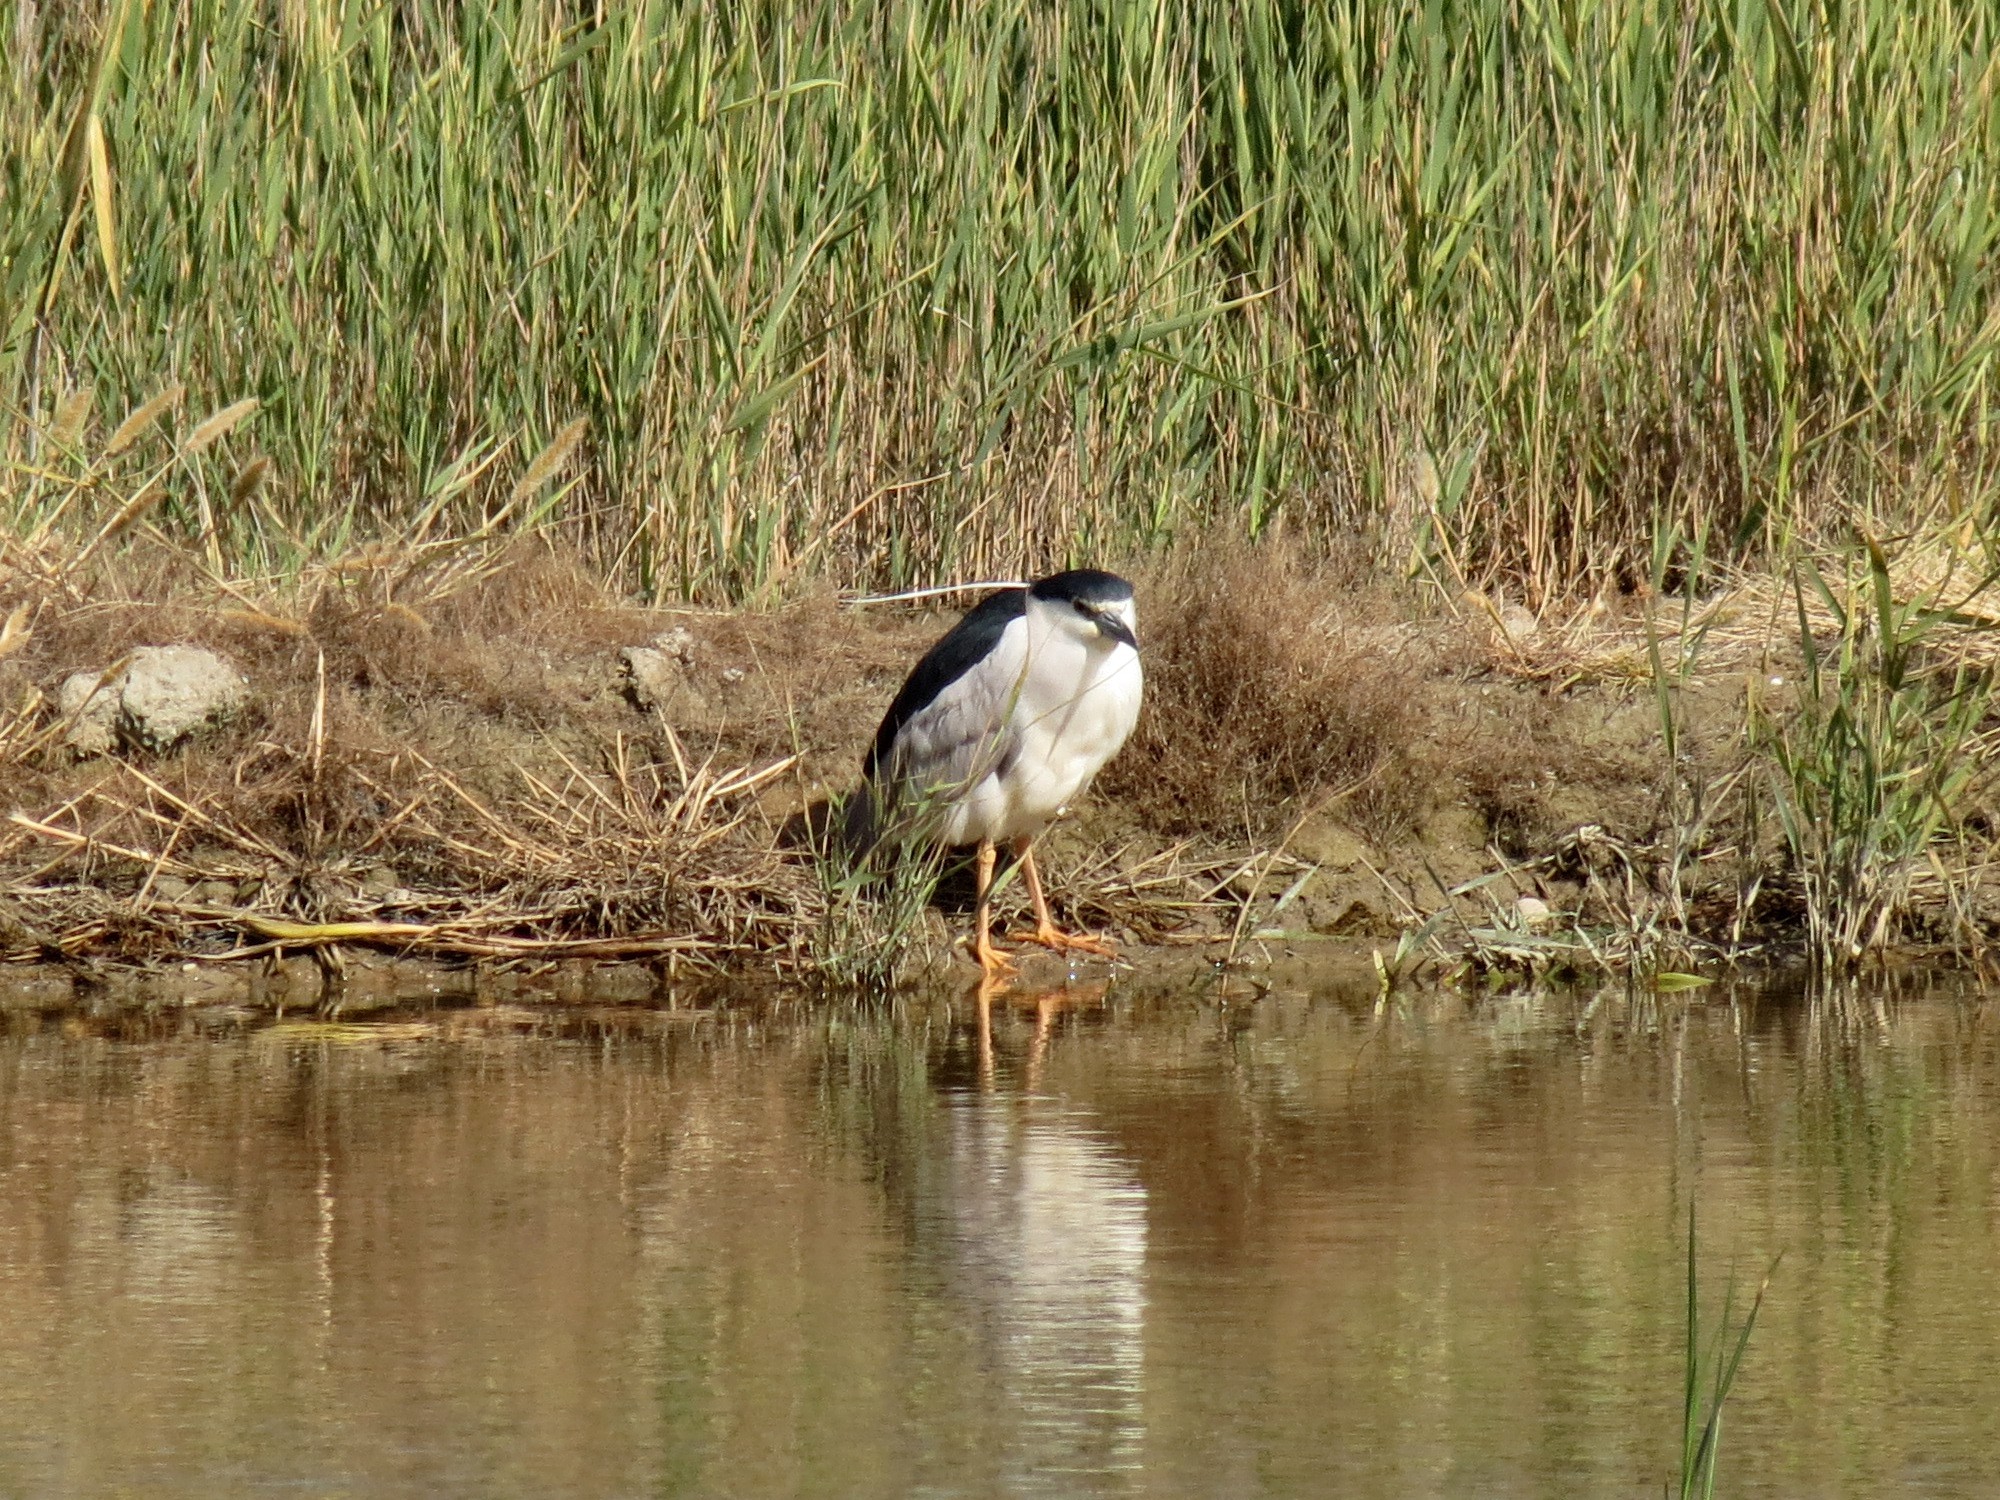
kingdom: Animalia
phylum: Chordata
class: Aves
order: Pelecaniformes
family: Ardeidae
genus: Nycticorax
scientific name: Nycticorax nycticorax
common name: Black-crowned night heron
